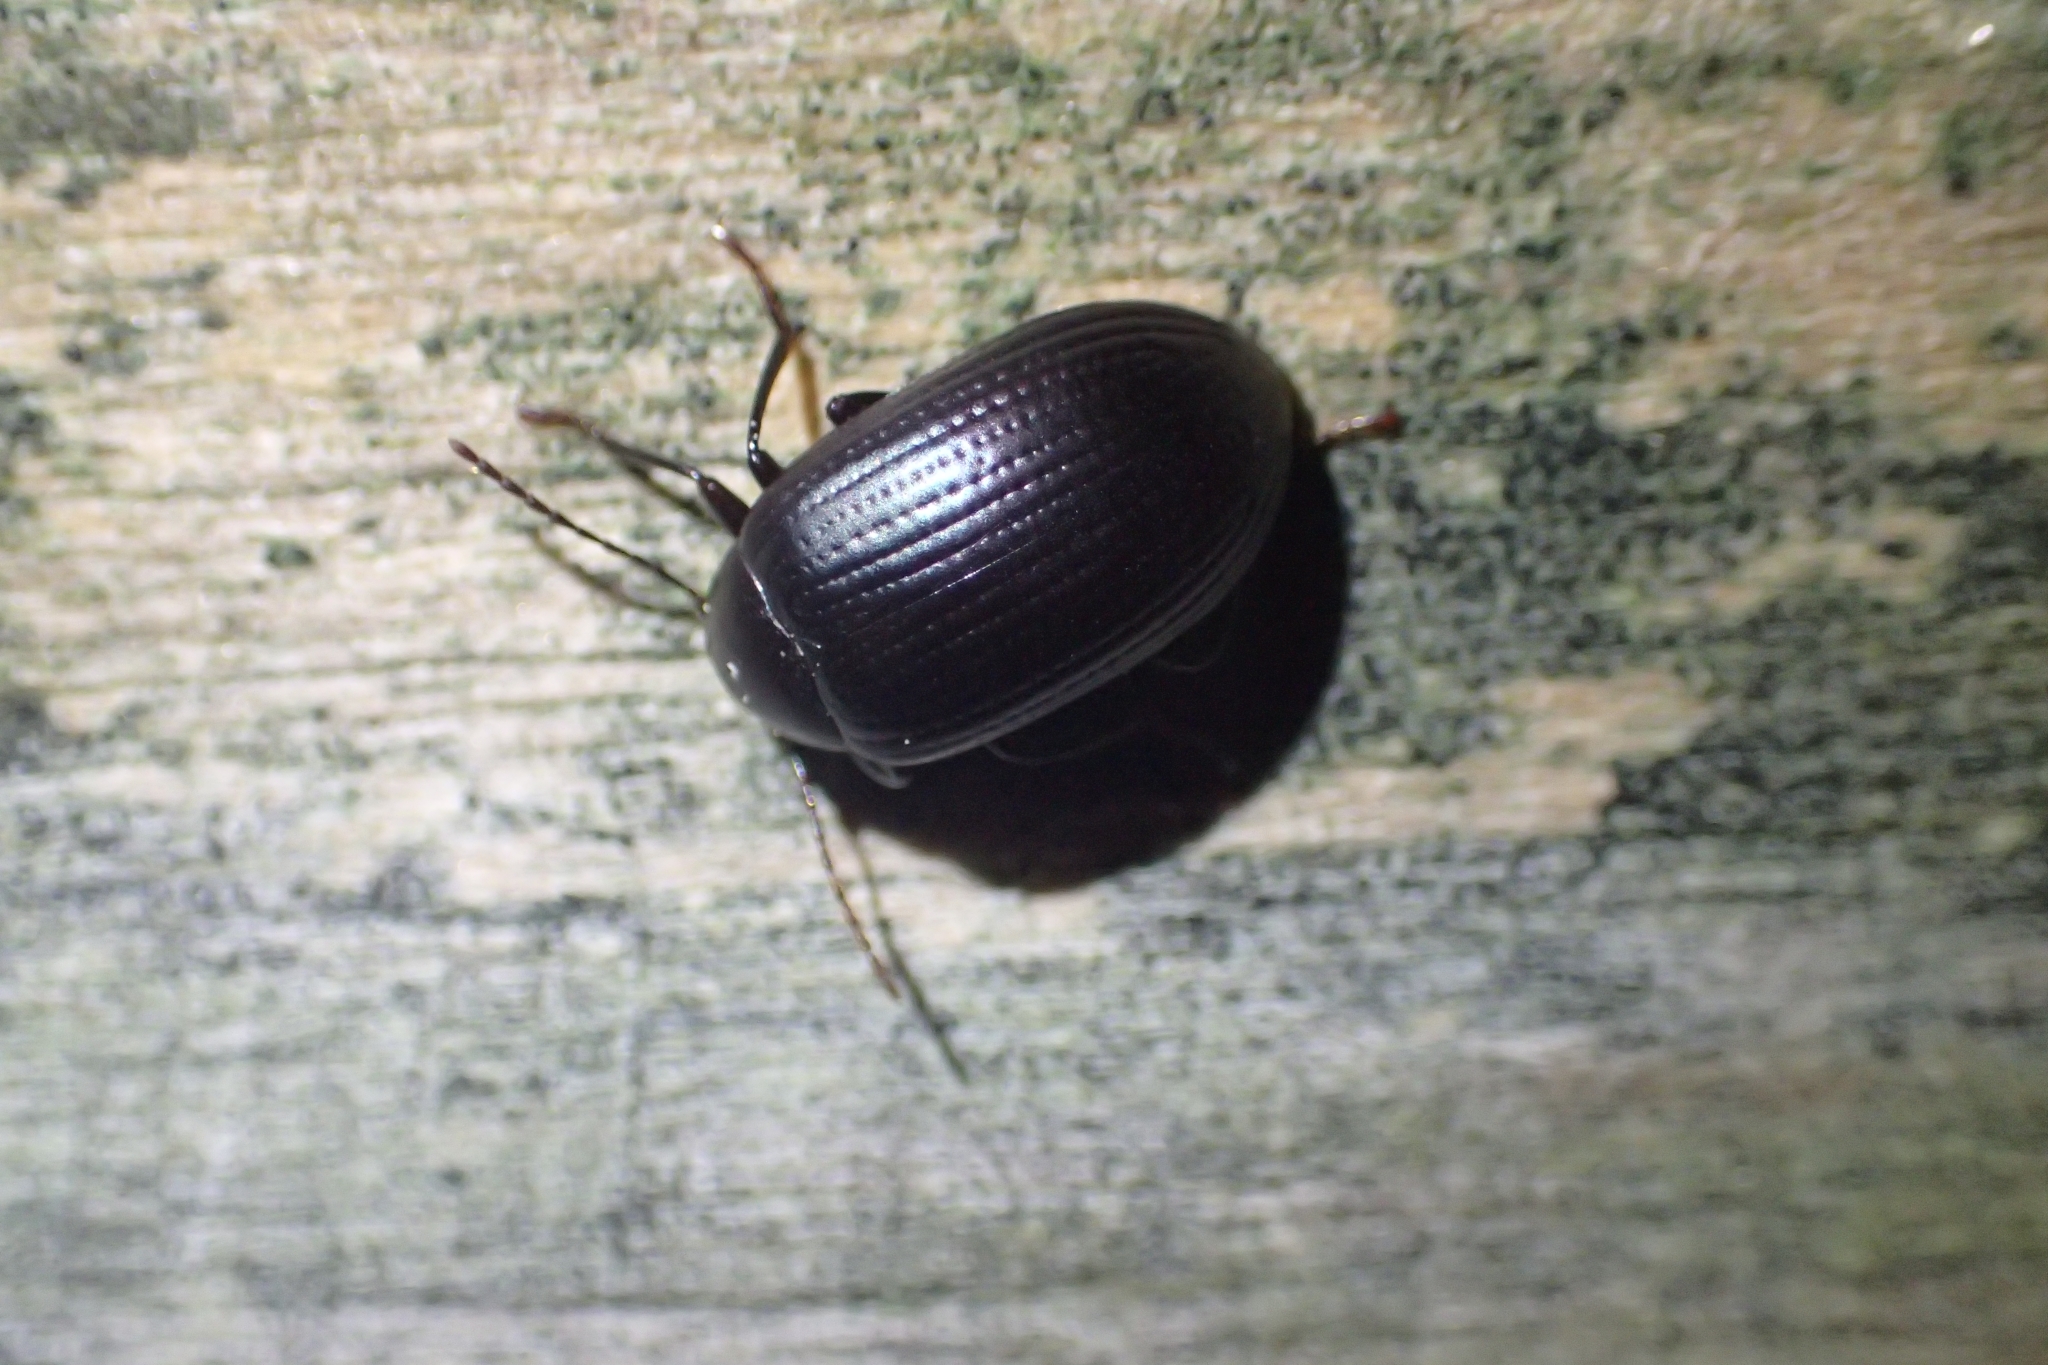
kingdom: Animalia
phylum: Arthropoda
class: Insecta
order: Coleoptera
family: Tenebrionidae
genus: Amarygmus
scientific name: Amarygmus
